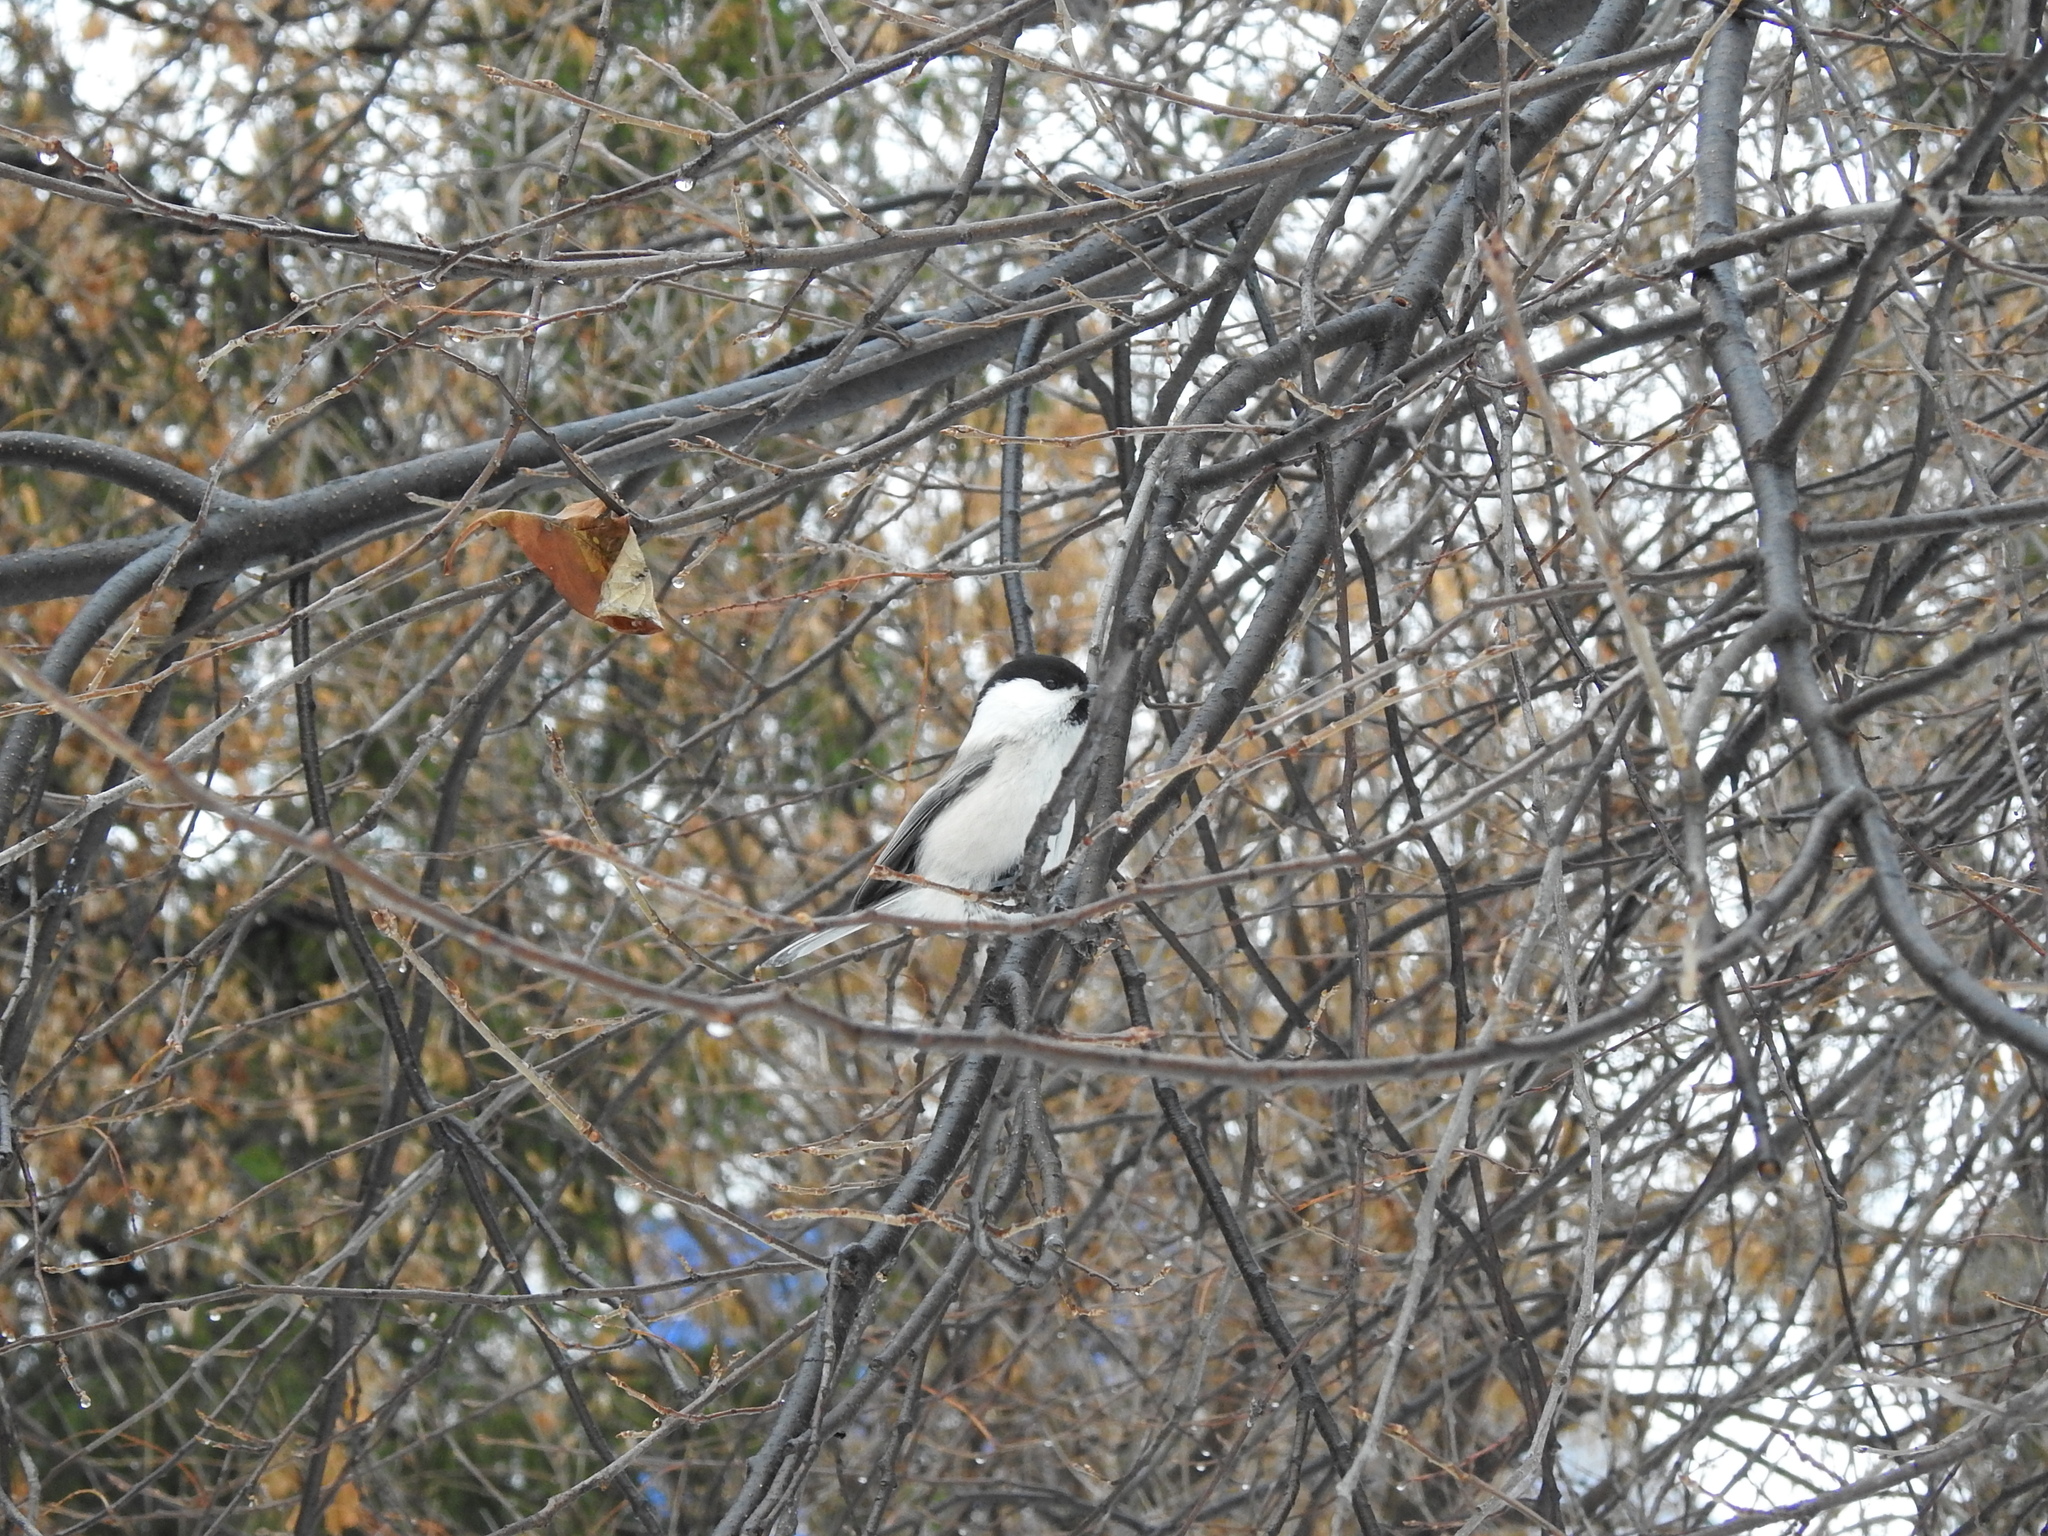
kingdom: Animalia
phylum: Chordata
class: Aves
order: Passeriformes
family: Paridae
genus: Poecile
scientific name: Poecile montanus
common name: Willow tit
